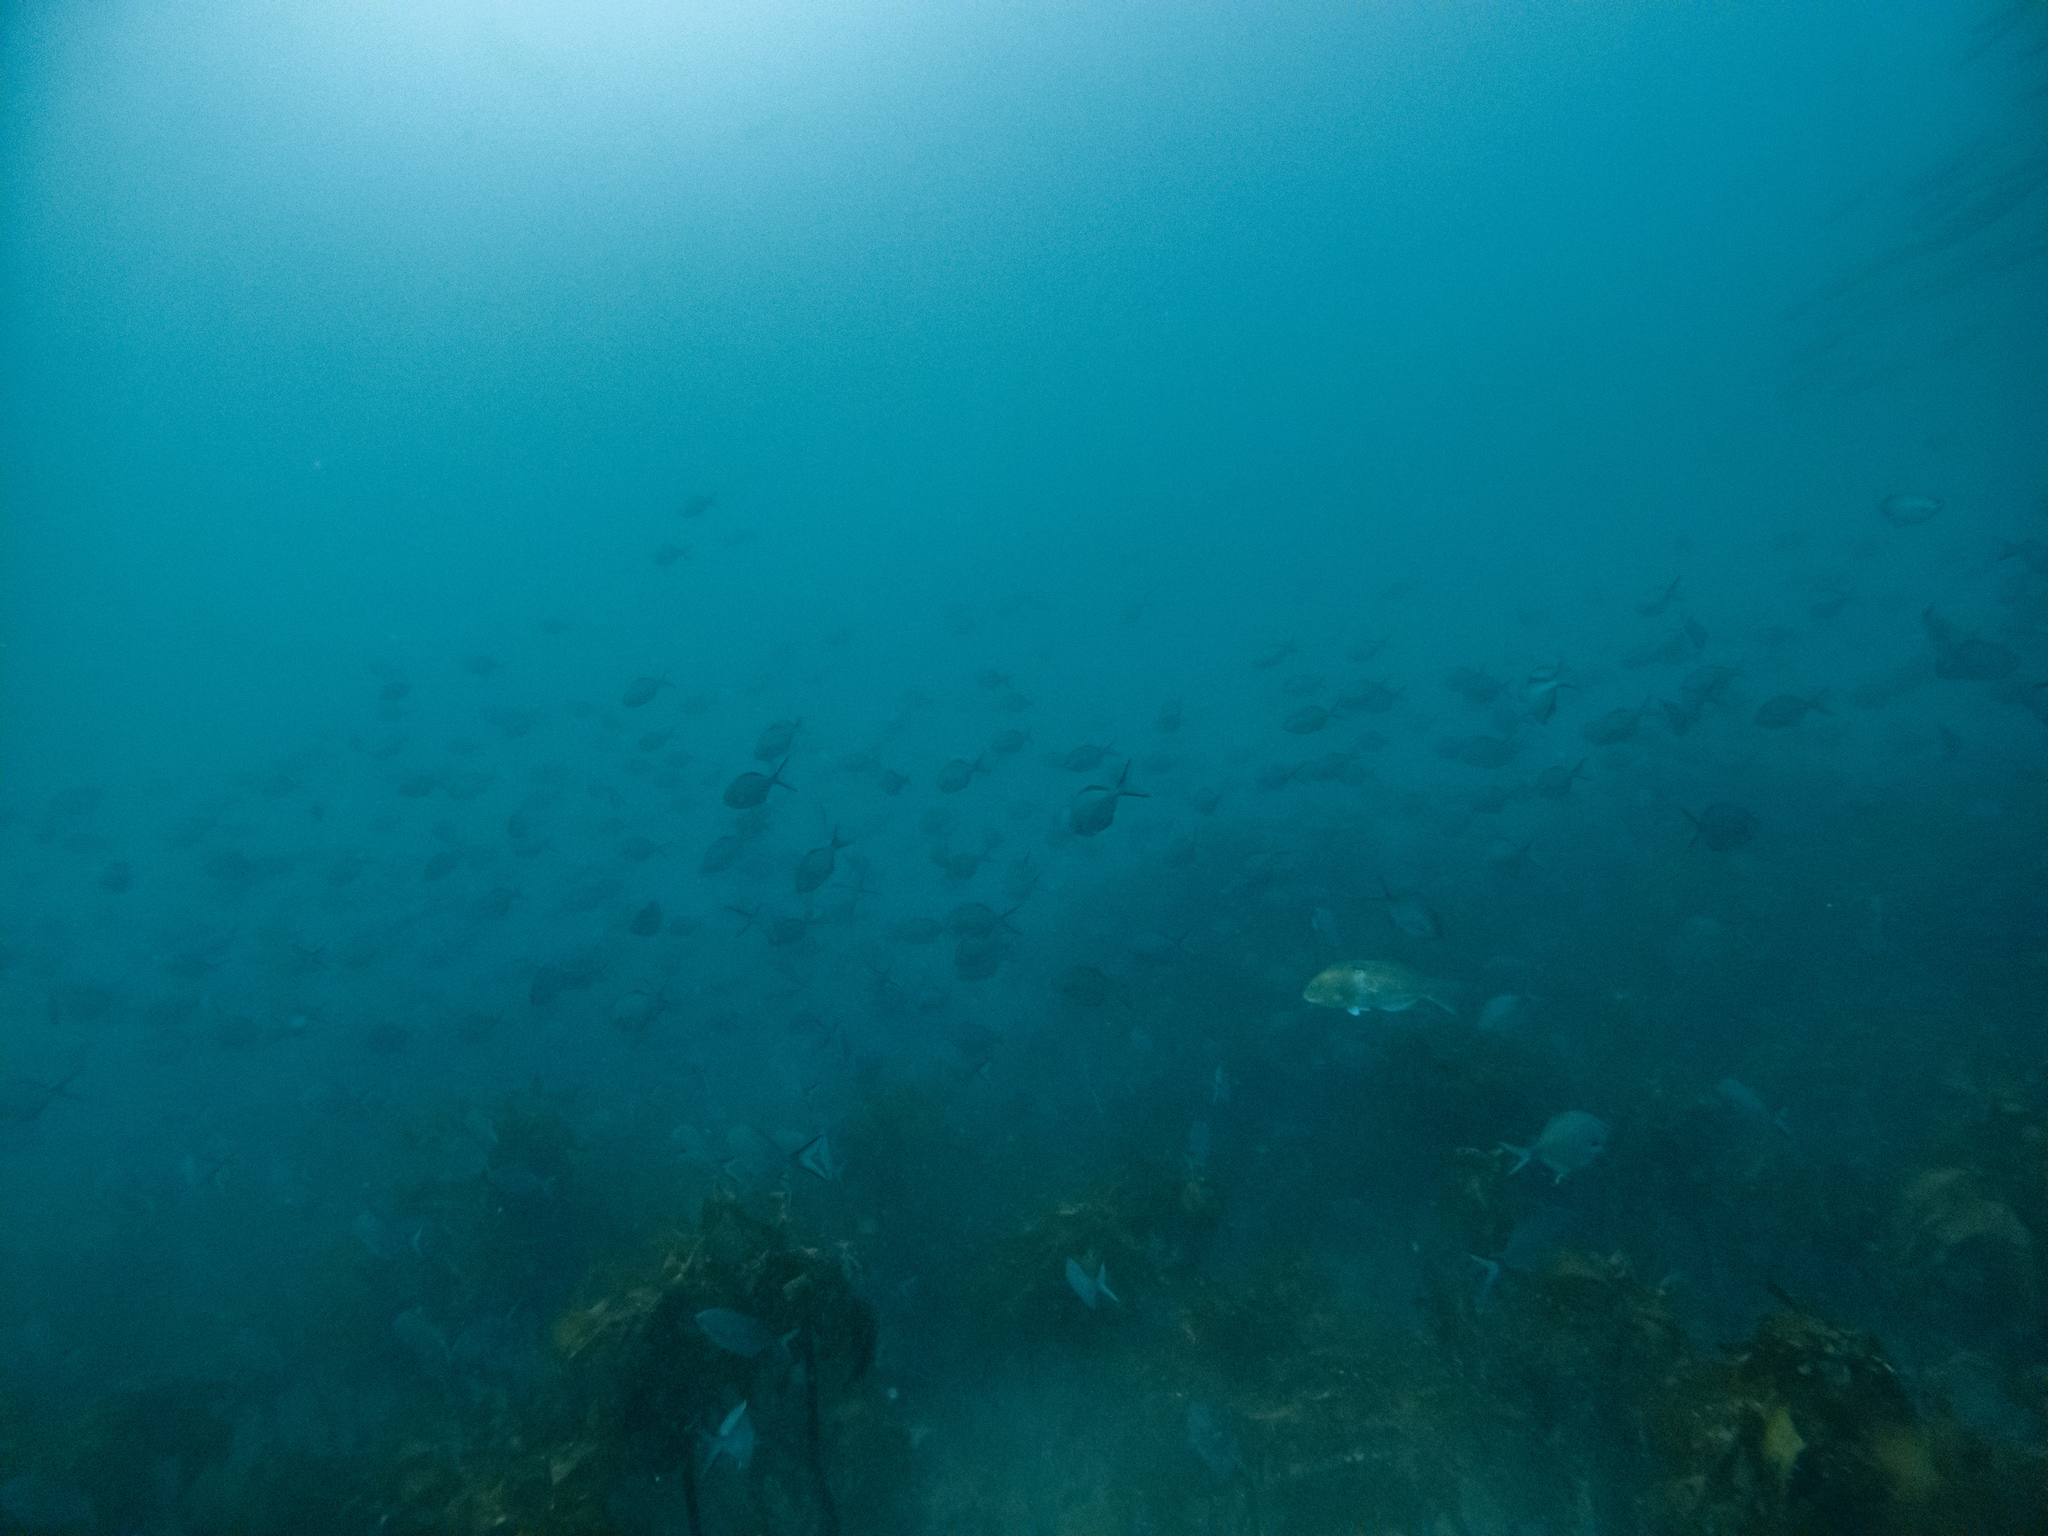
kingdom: Animalia
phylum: Chordata
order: Perciformes
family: Kyphosidae
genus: Scorpis
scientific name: Scorpis lineolata
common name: Sweep
